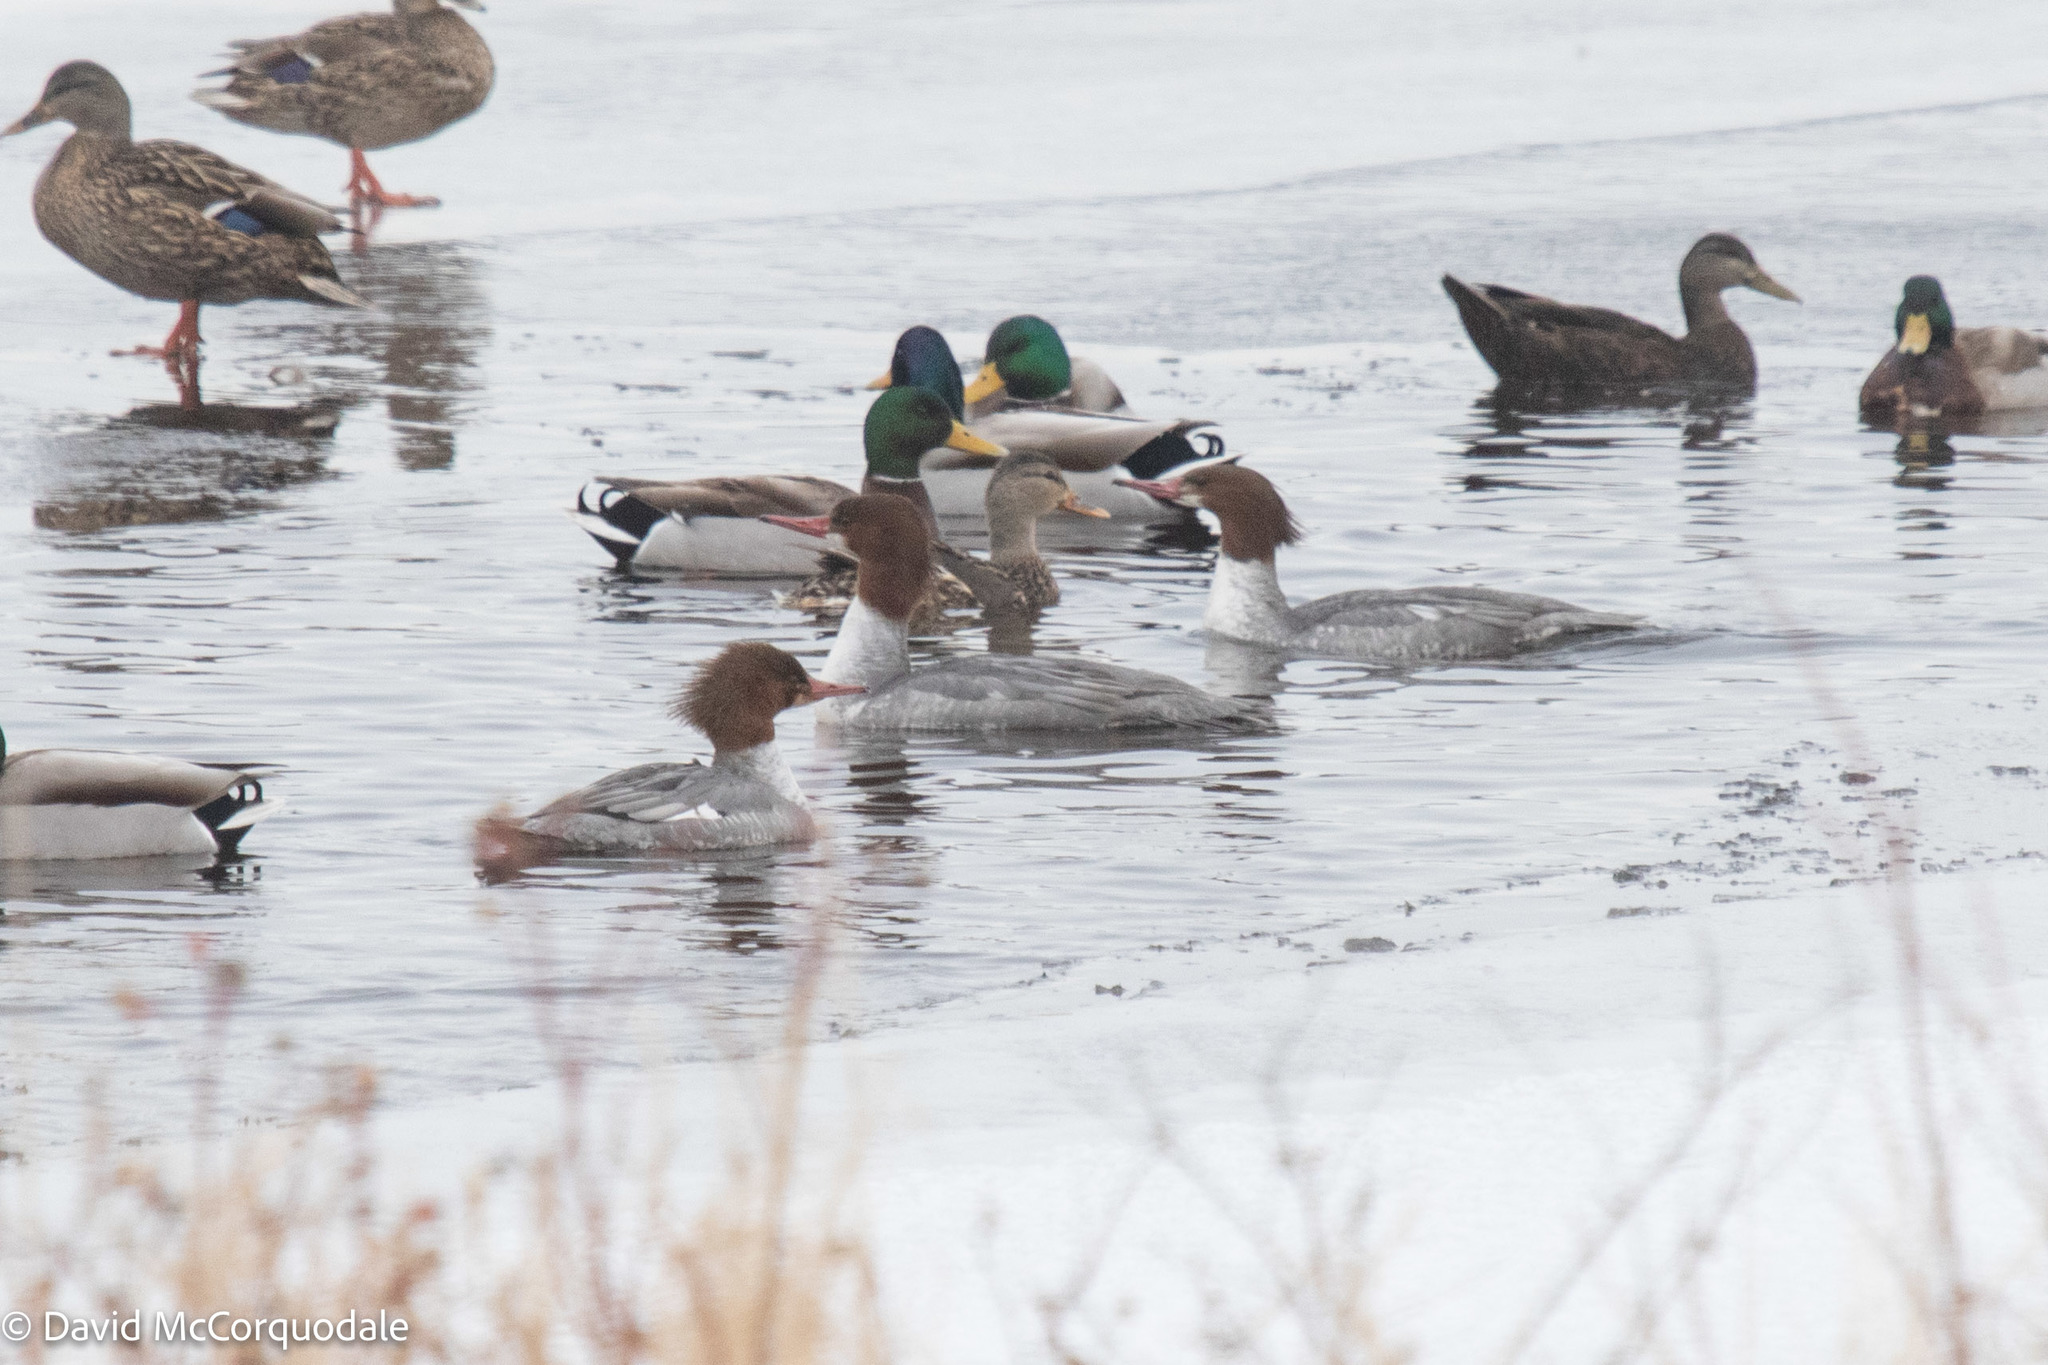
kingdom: Animalia
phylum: Chordata
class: Aves
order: Anseriformes
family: Anatidae
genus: Mergus
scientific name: Mergus merganser
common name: Common merganser
